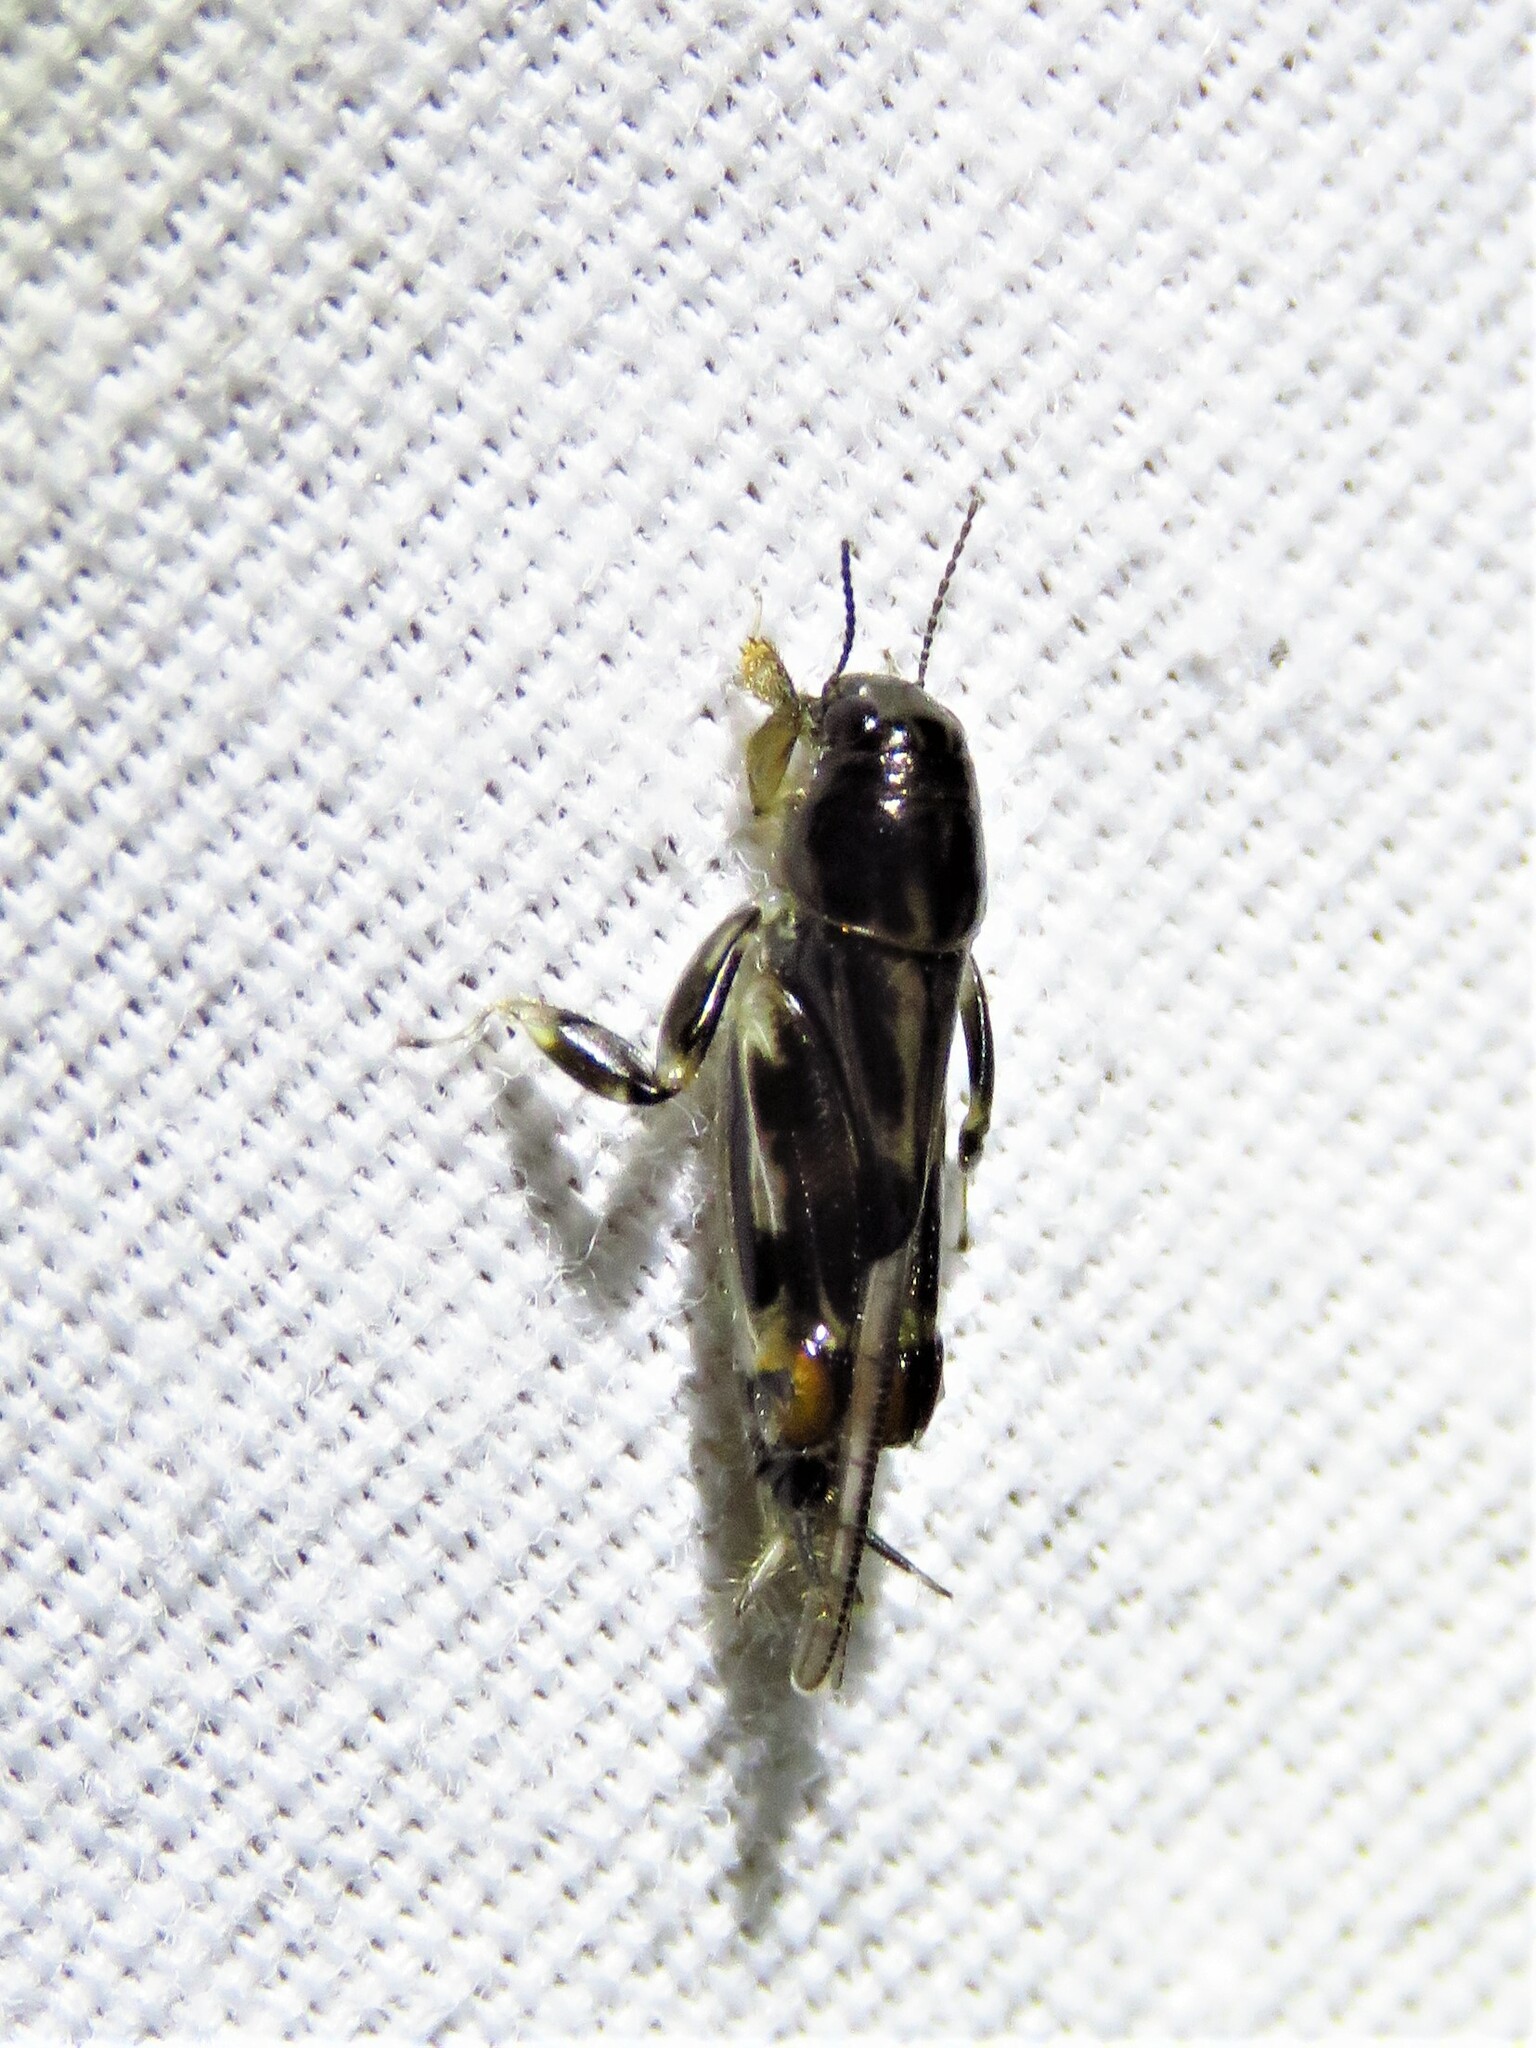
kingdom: Animalia
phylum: Arthropoda
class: Insecta
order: Orthoptera
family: Tridactylidae
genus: Neotridactylus
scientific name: Neotridactylus apicialis
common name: Larger pygmy locust
